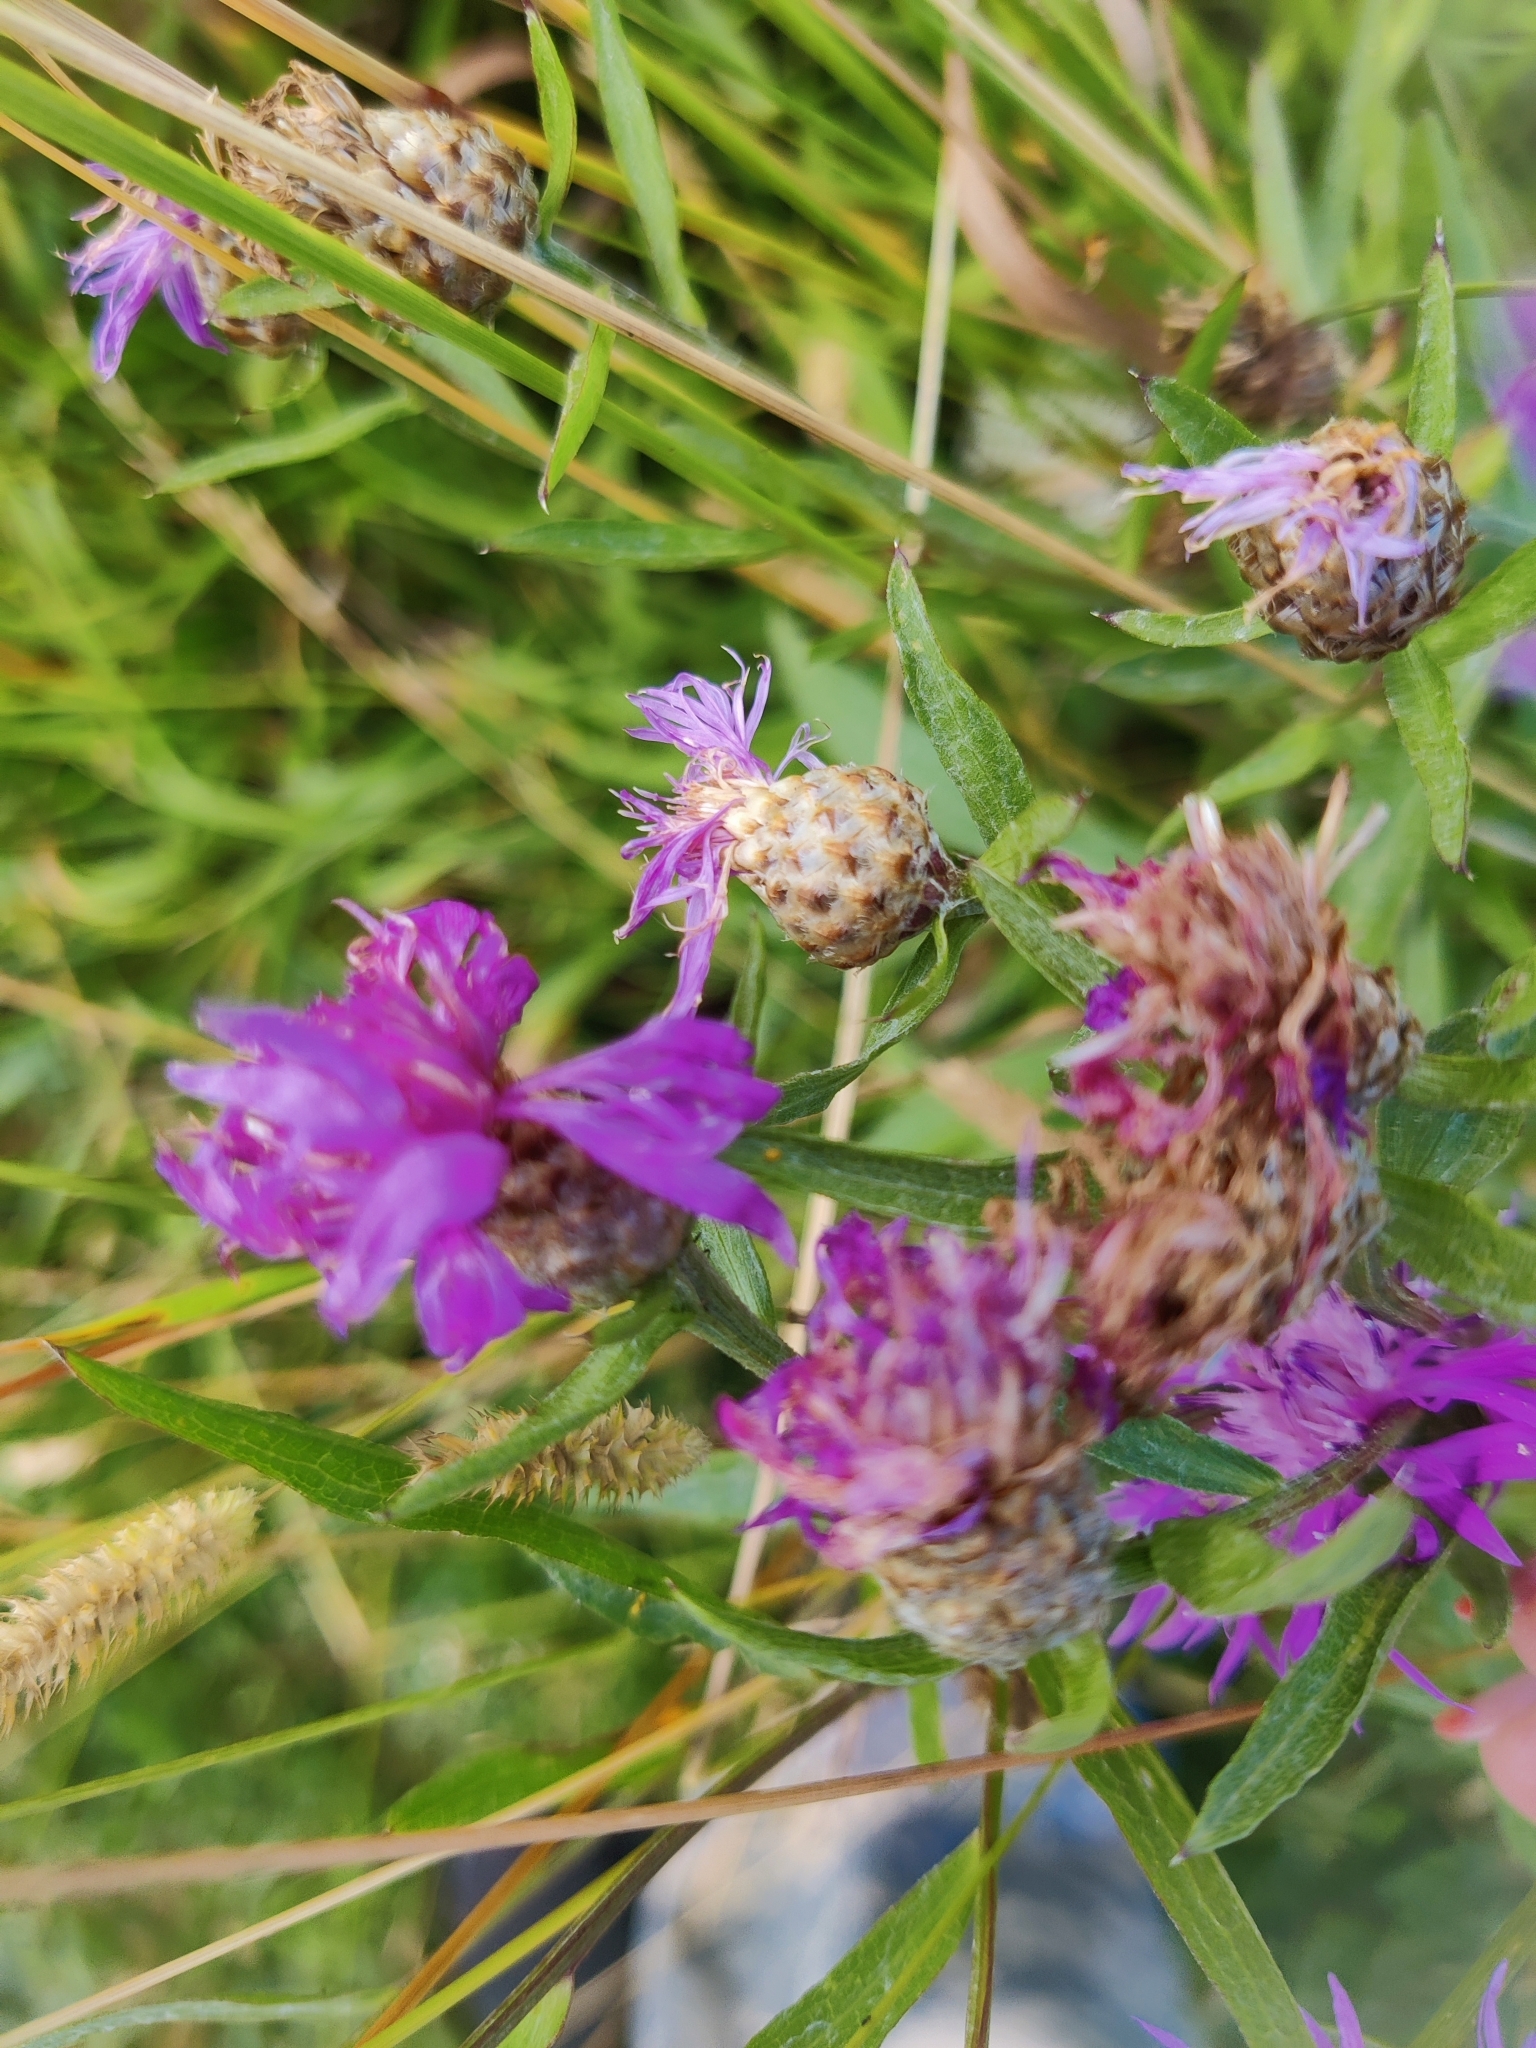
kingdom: Plantae
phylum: Tracheophyta
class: Magnoliopsida
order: Asterales
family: Asteraceae
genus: Centaurea
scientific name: Centaurea stoebe
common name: Spotted knapweed
